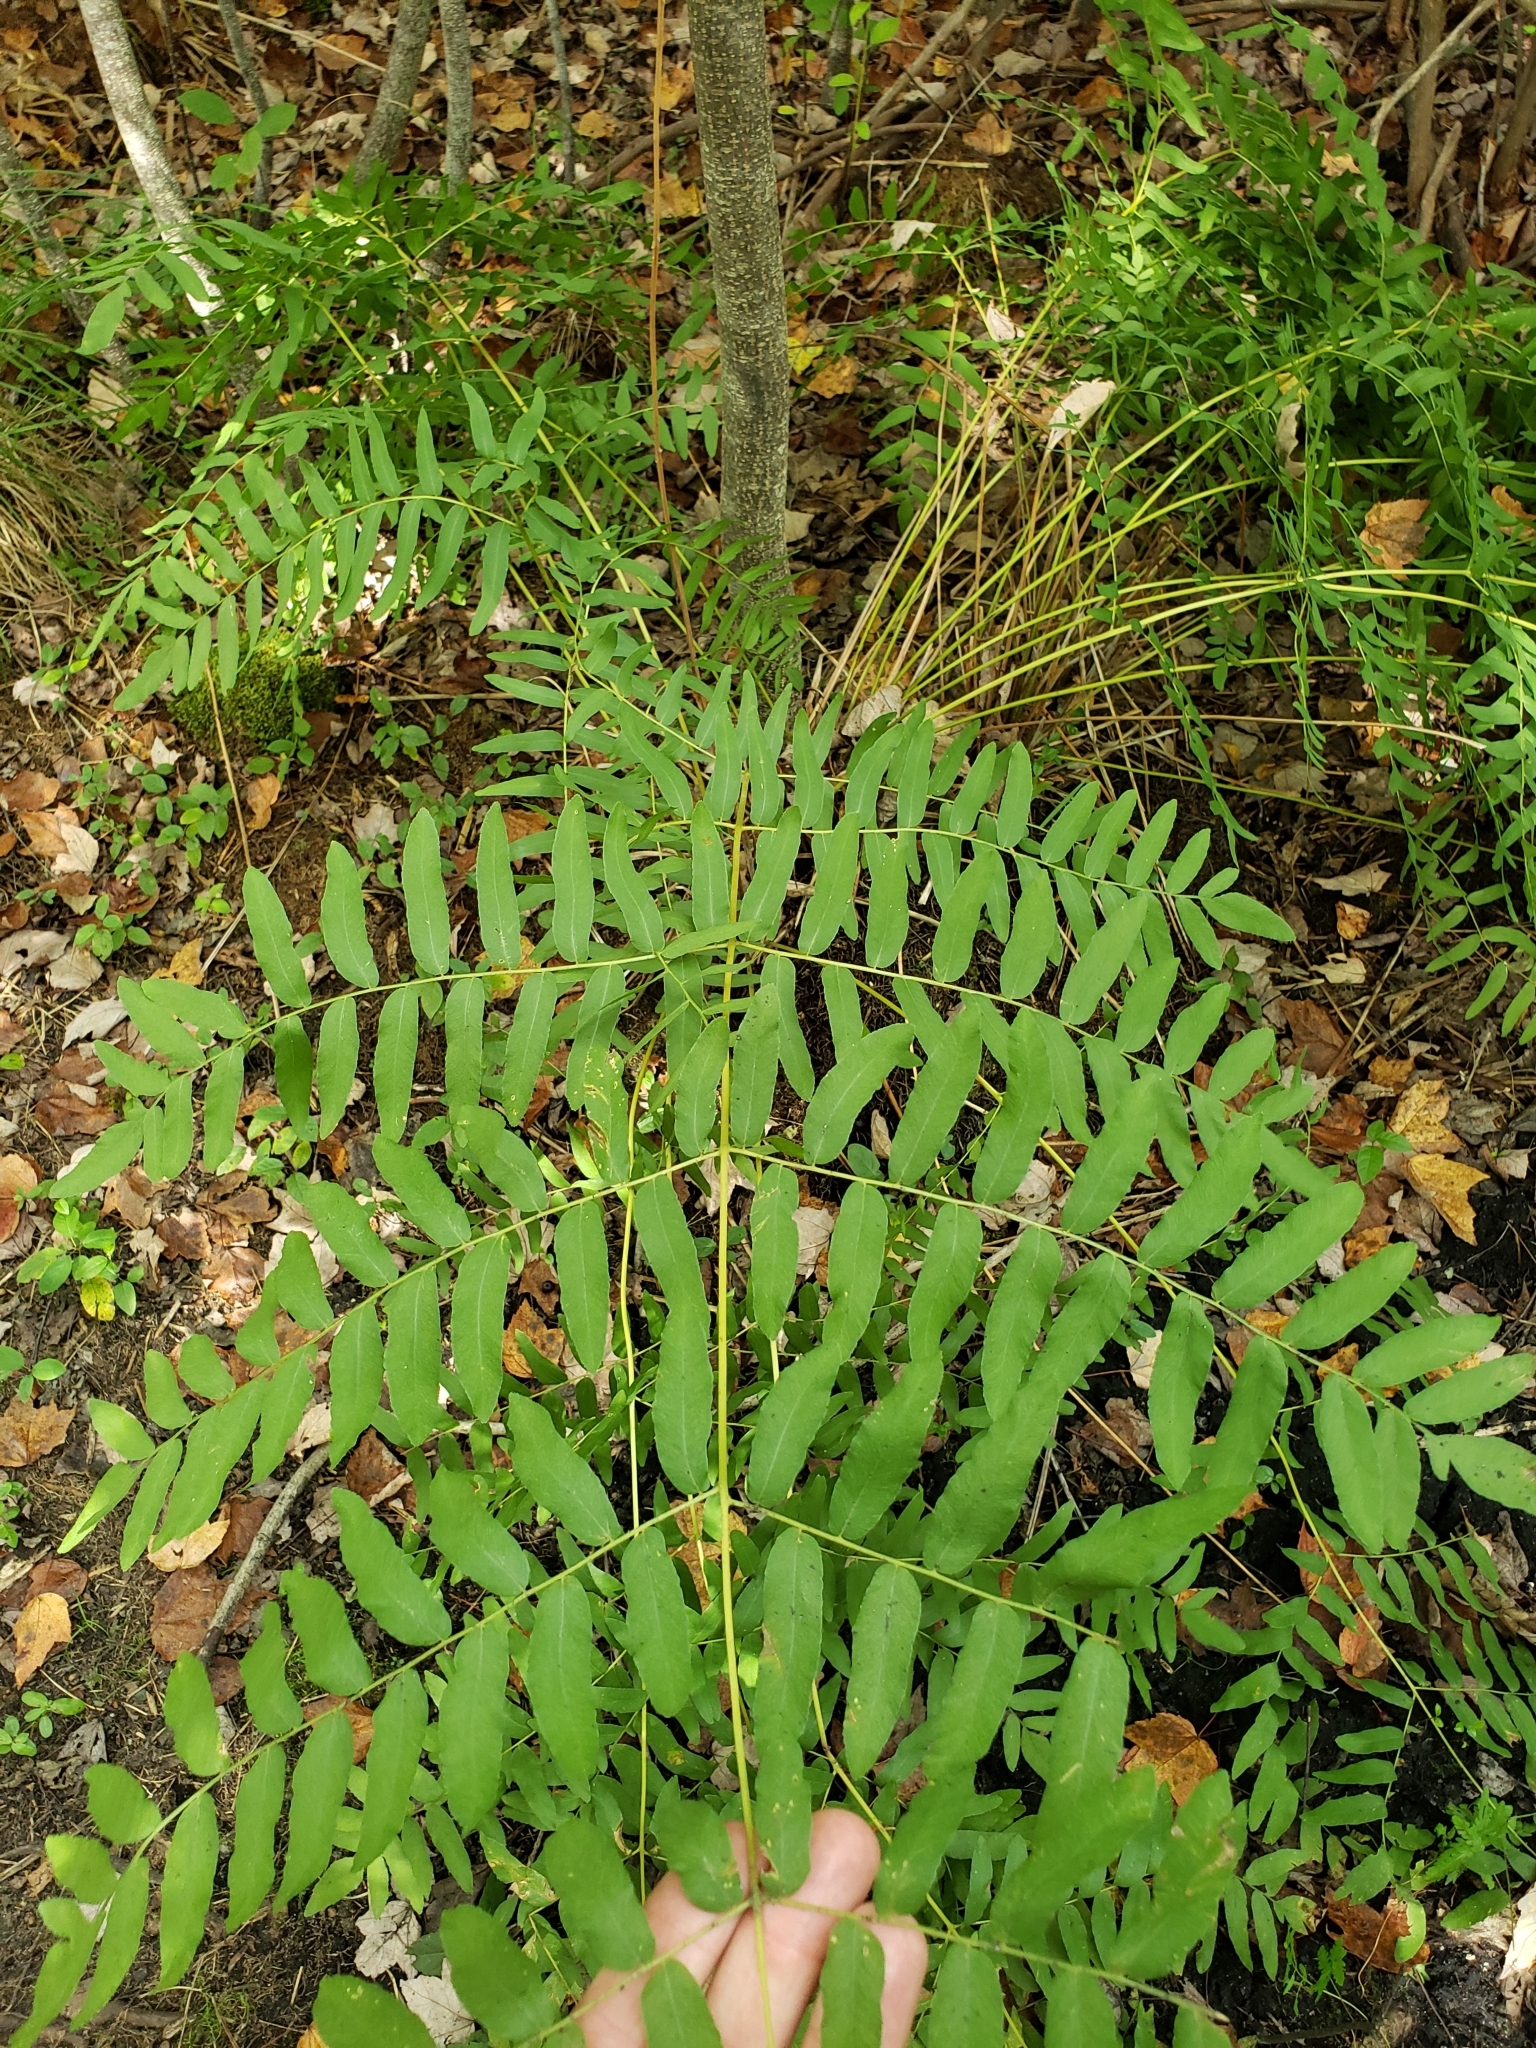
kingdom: Plantae
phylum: Tracheophyta
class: Polypodiopsida
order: Osmundales
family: Osmundaceae
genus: Osmunda
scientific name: Osmunda spectabilis
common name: American royal fern
